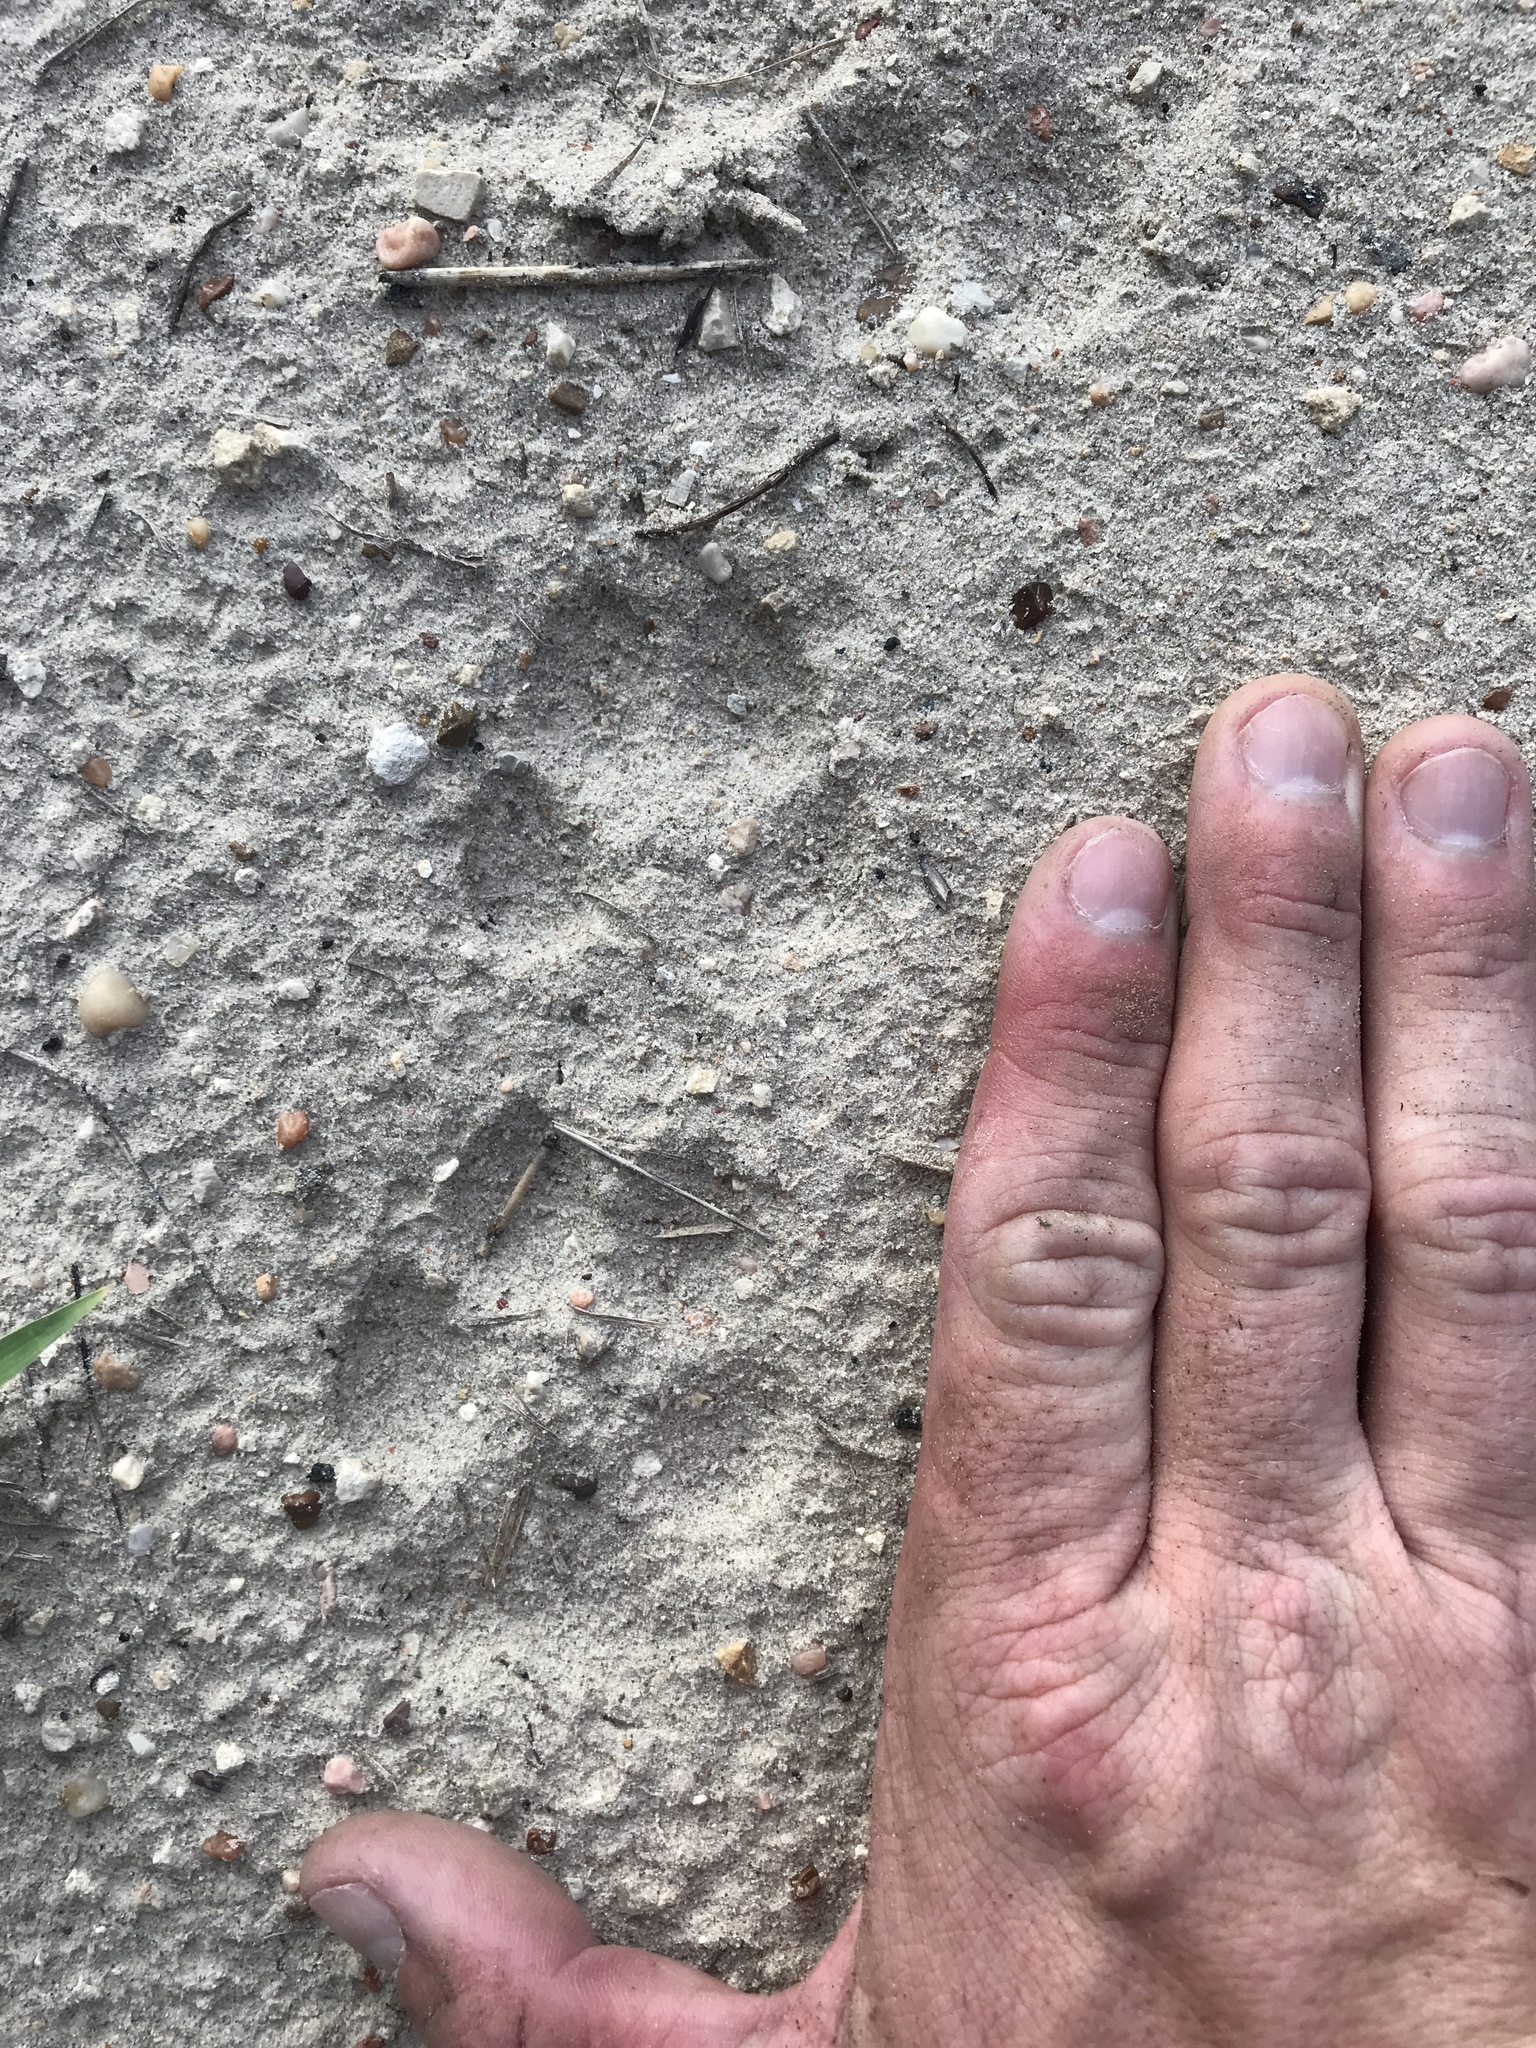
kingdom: Animalia
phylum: Chordata
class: Mammalia
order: Carnivora
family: Canidae
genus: Canis
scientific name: Canis latrans
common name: Coyote
